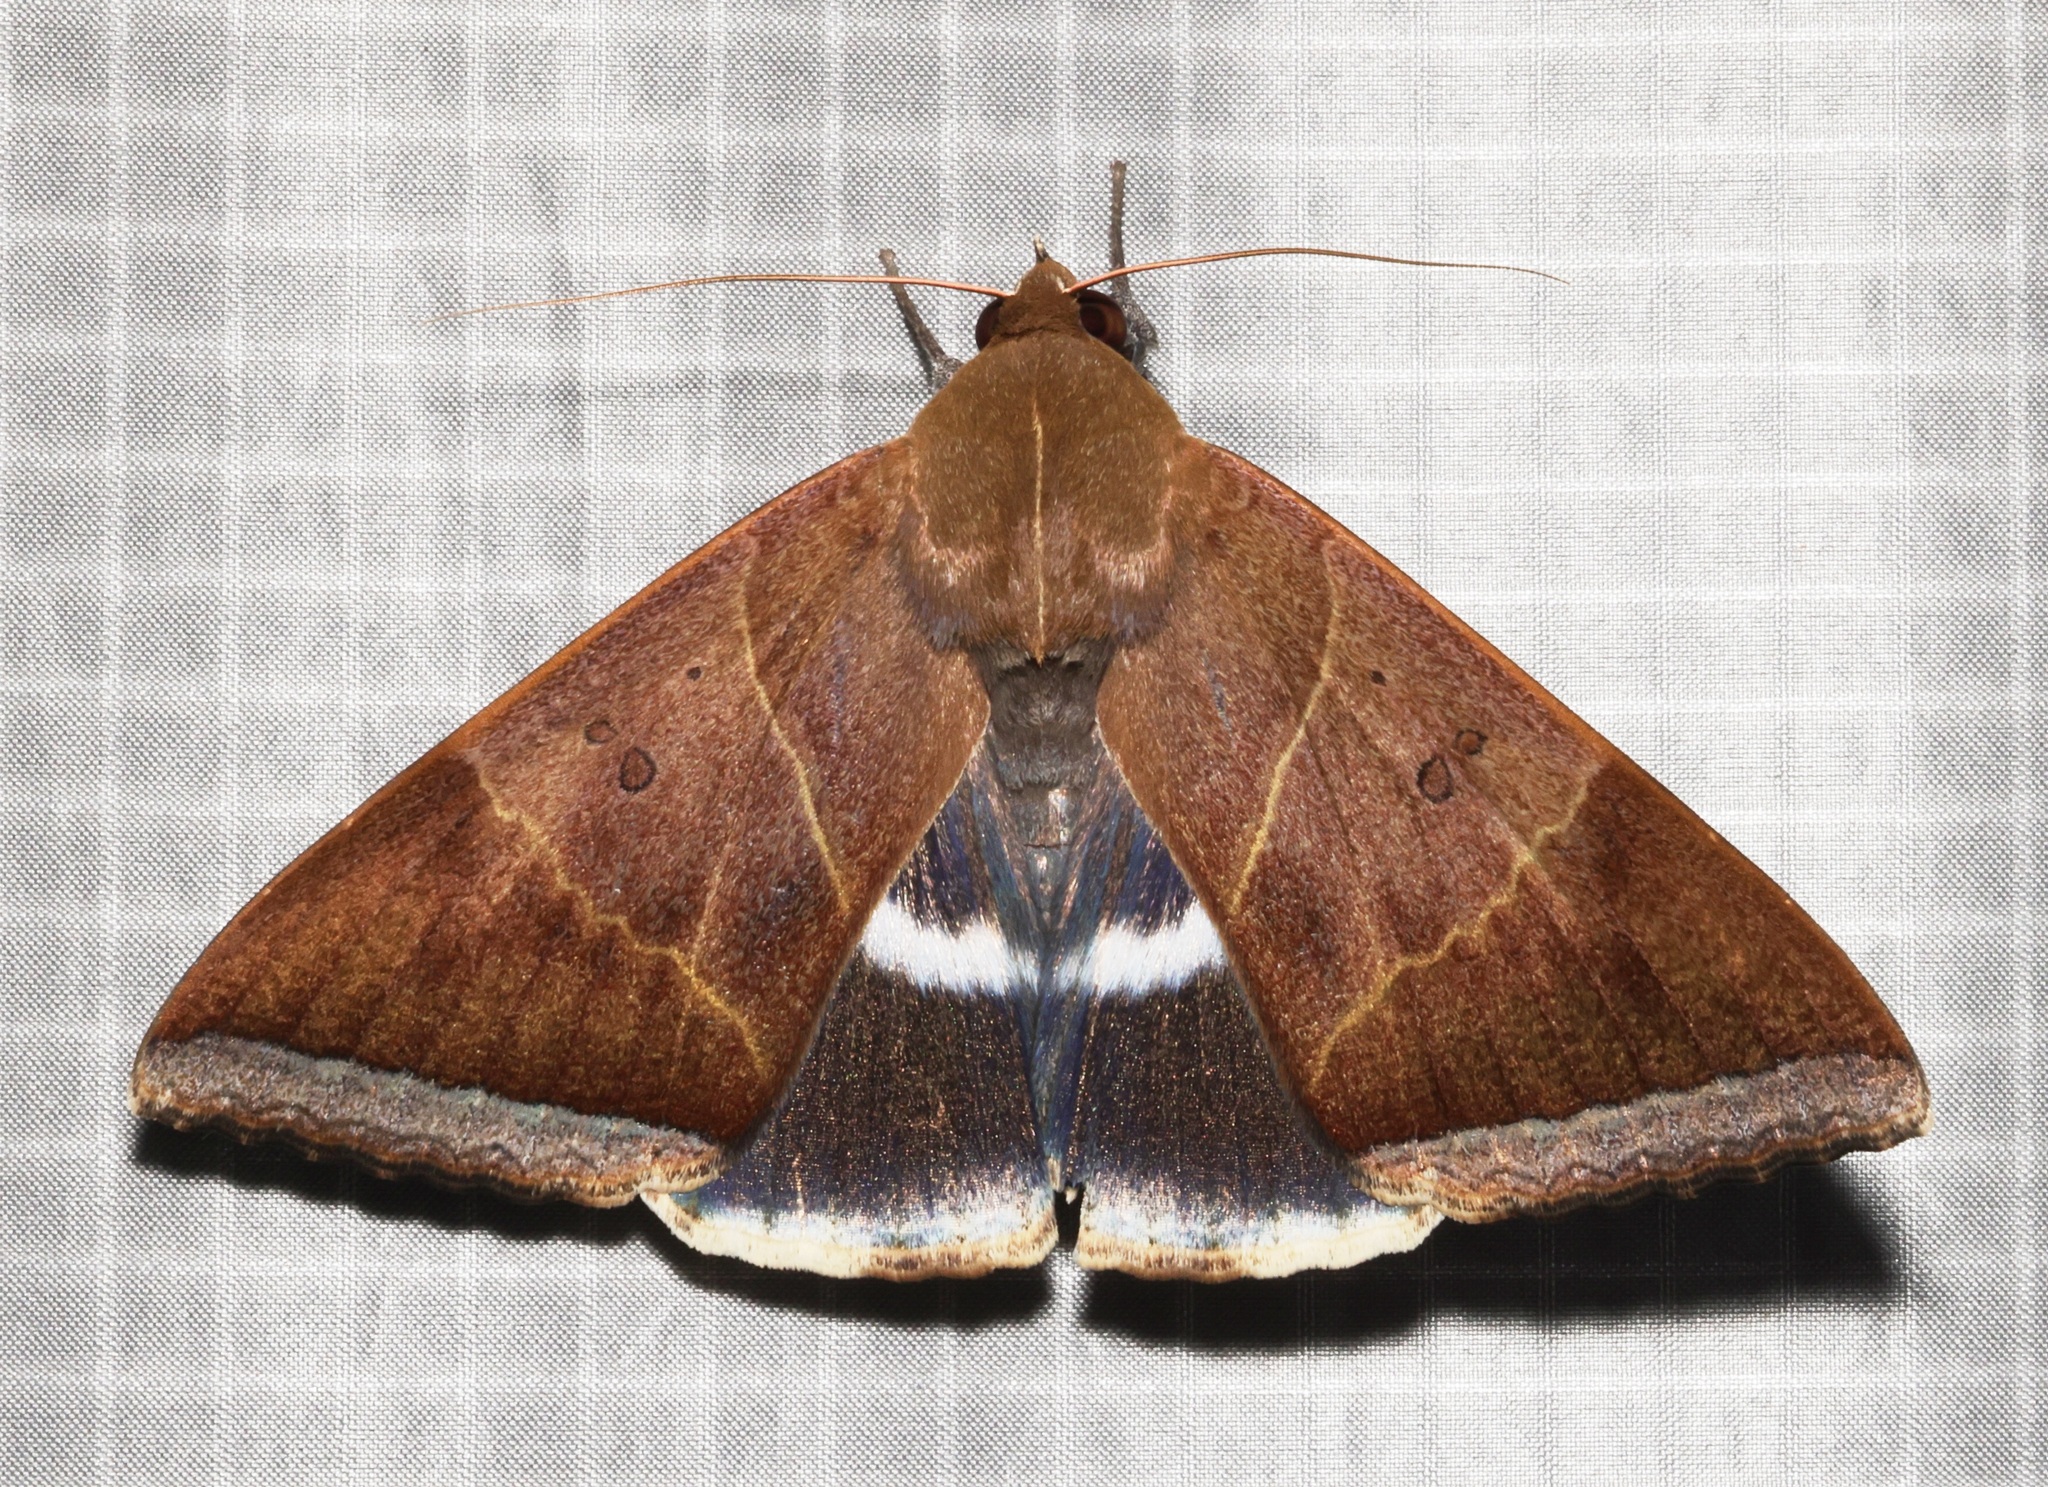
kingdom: Animalia
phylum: Arthropoda
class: Insecta
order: Lepidoptera
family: Erebidae
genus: Artena
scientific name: Artena dotata
